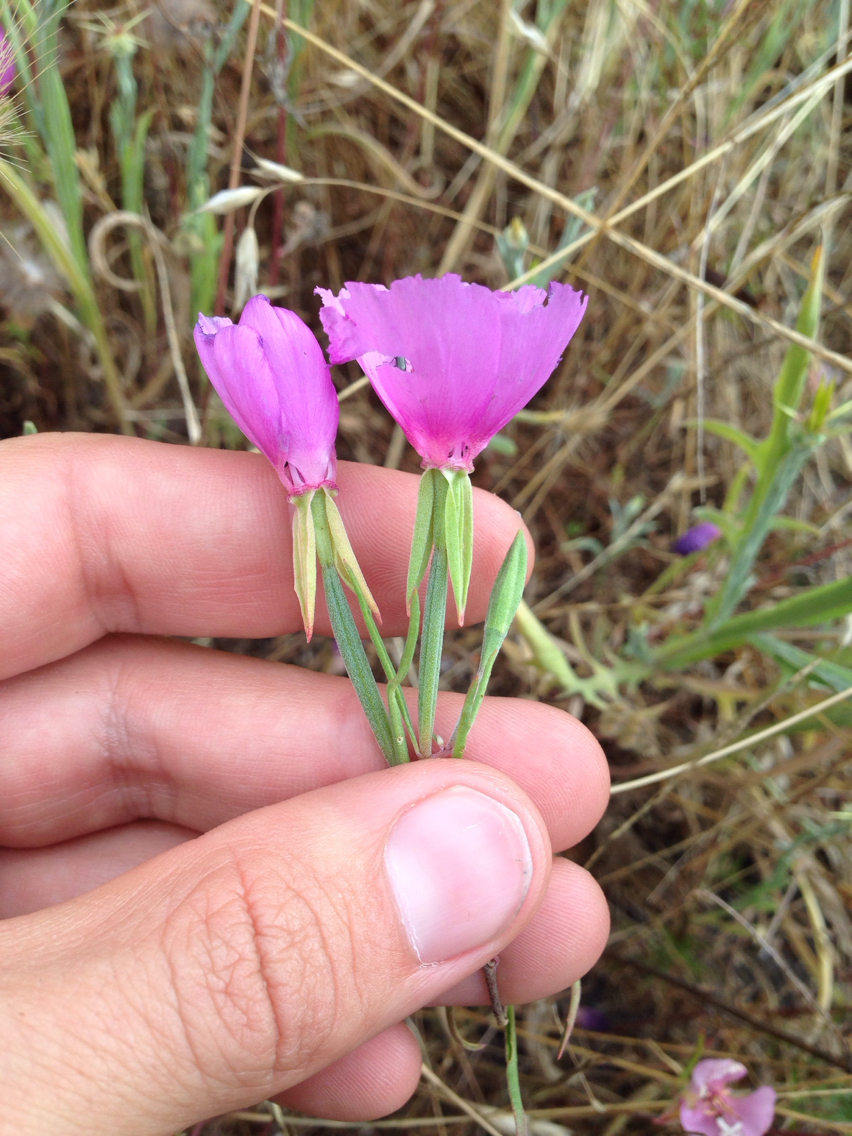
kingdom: Plantae
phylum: Tracheophyta
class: Magnoliopsida
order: Myrtales
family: Onagraceae
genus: Clarkia
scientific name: Clarkia rubicunda
